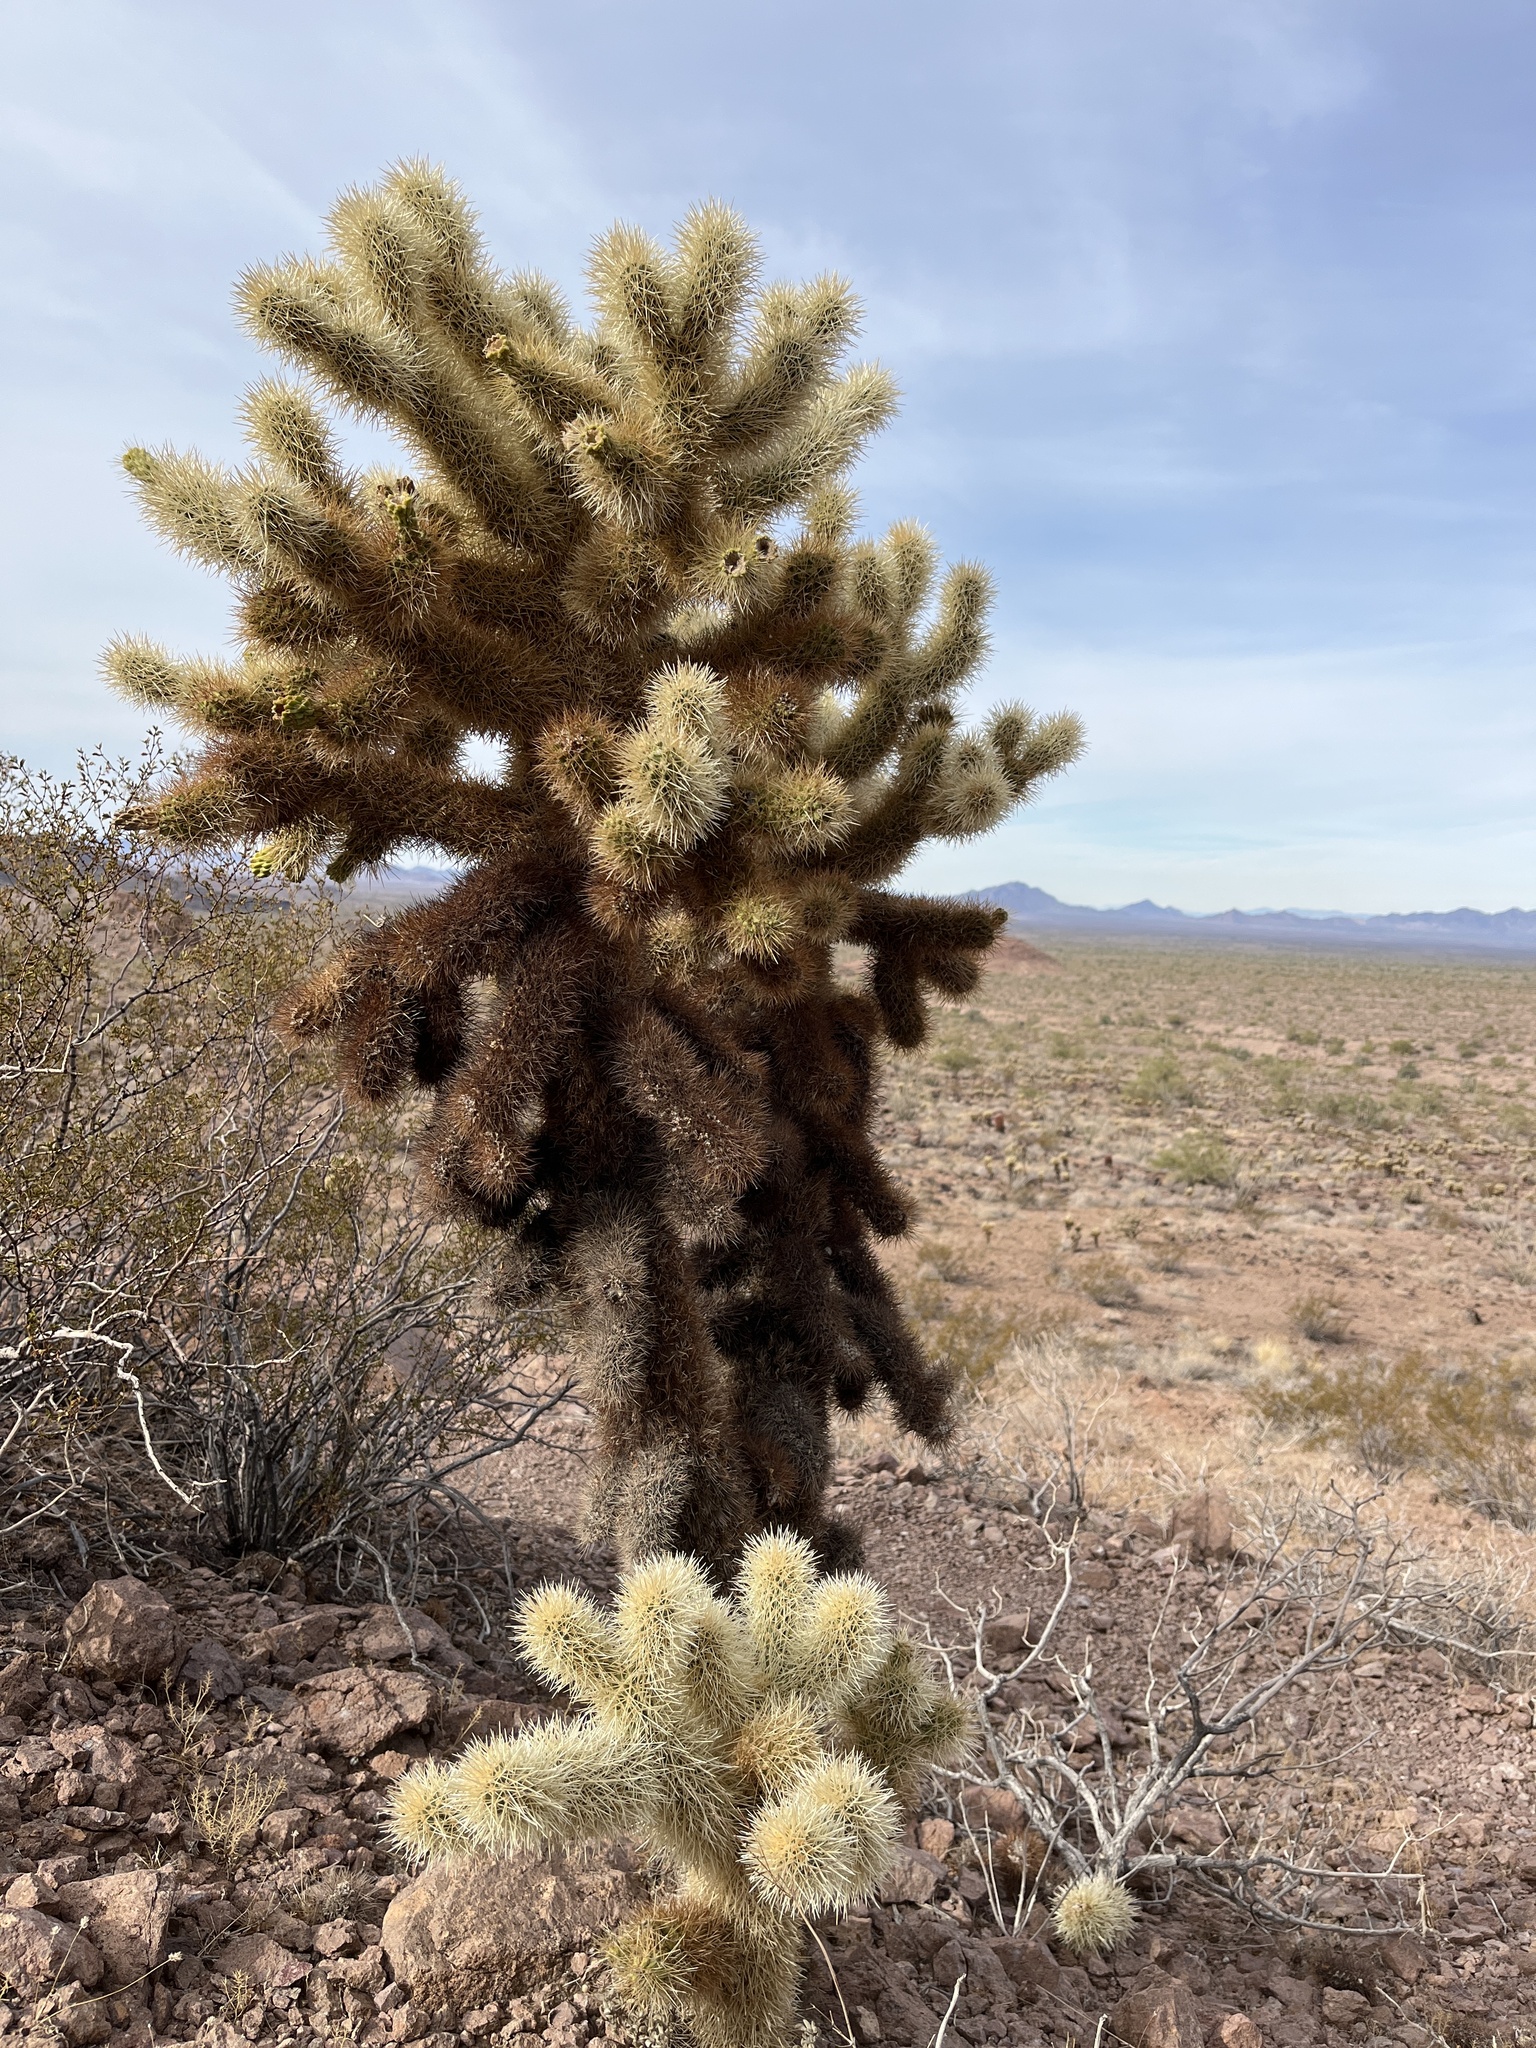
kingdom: Plantae
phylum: Tracheophyta
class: Magnoliopsida
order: Caryophyllales
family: Cactaceae
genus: Cylindropuntia
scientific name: Cylindropuntia fosbergii
